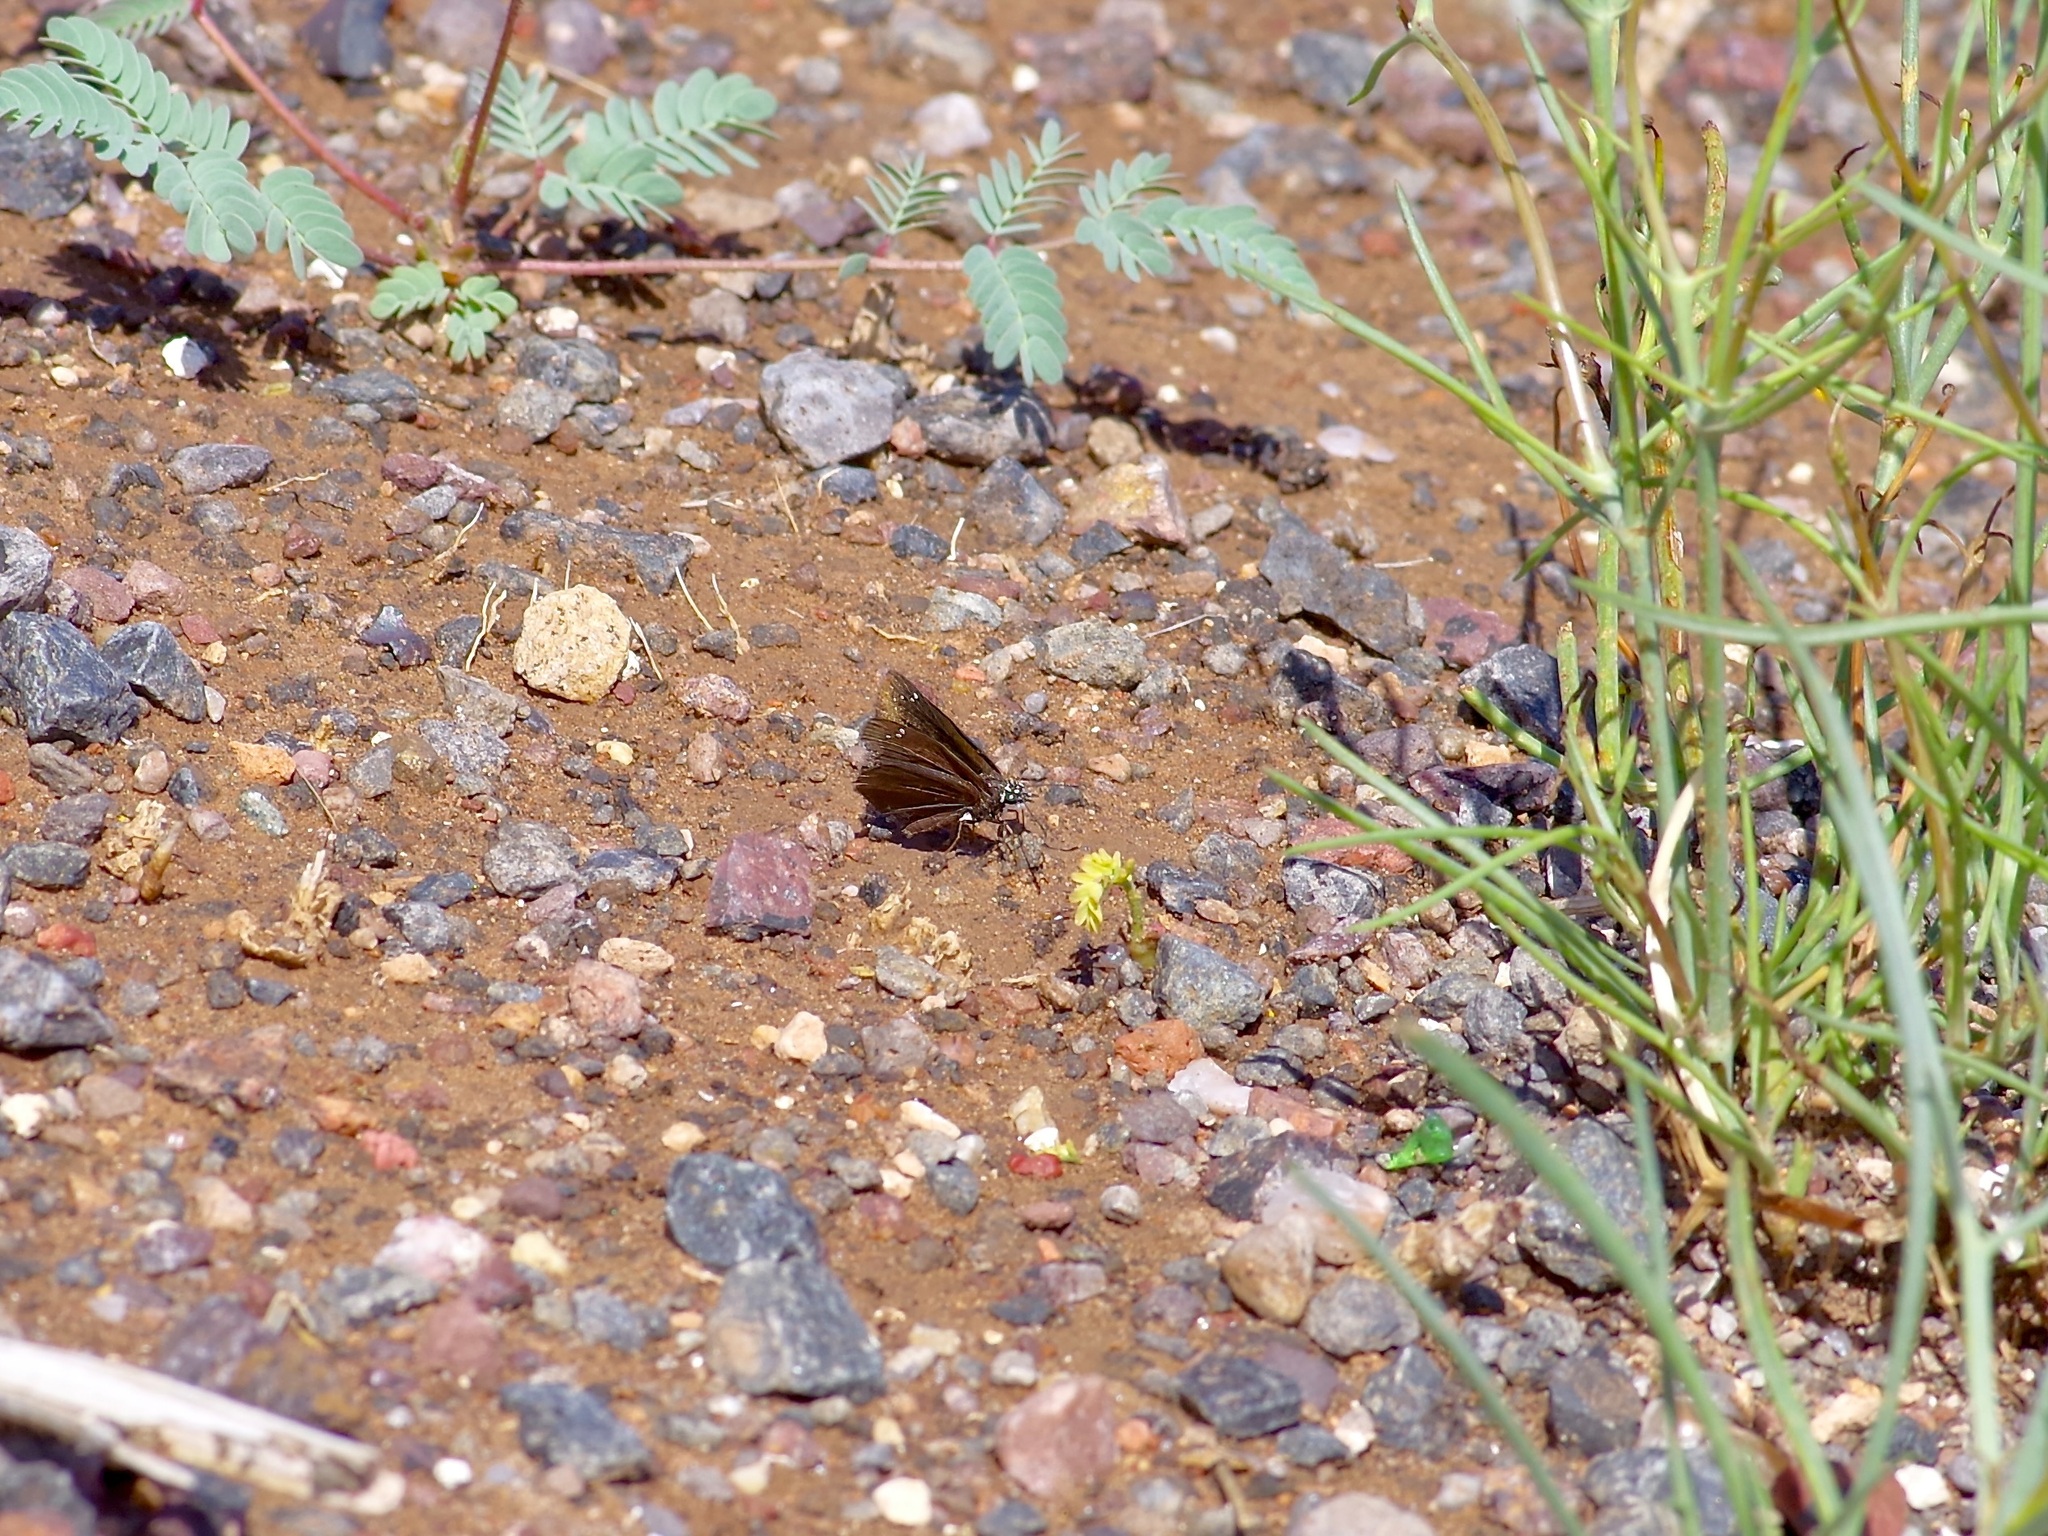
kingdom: Animalia
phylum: Arthropoda
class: Insecta
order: Lepidoptera
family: Hesperiidae
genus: Pholisora
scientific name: Pholisora catullus
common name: Common sootywing
